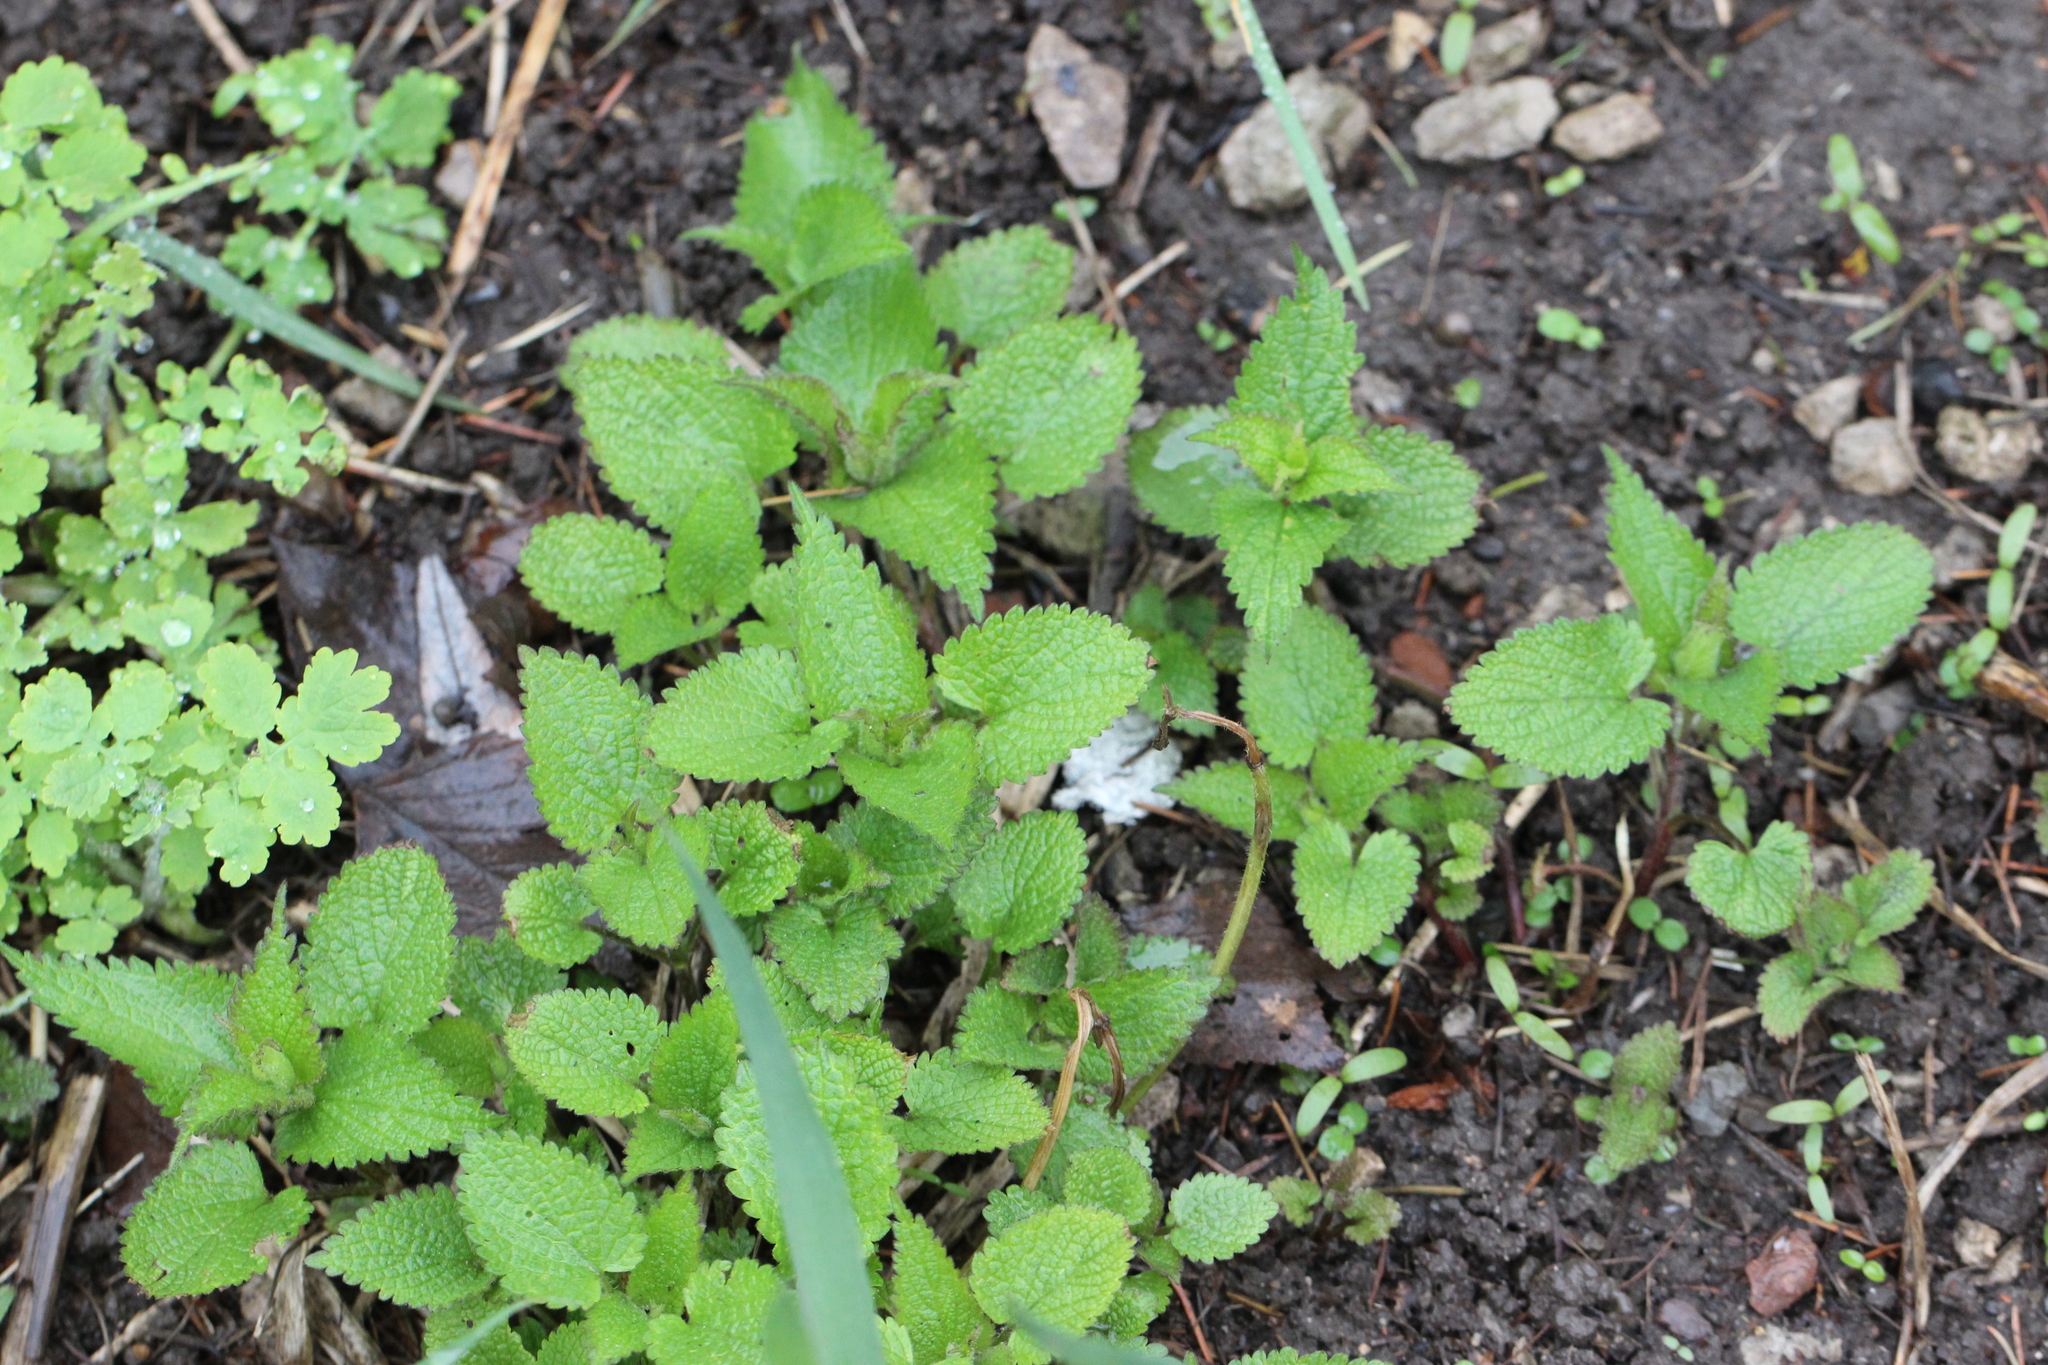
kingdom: Plantae
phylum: Tracheophyta
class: Magnoliopsida
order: Lamiales
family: Lamiaceae
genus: Lamium
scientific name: Lamium album
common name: White dead-nettle
